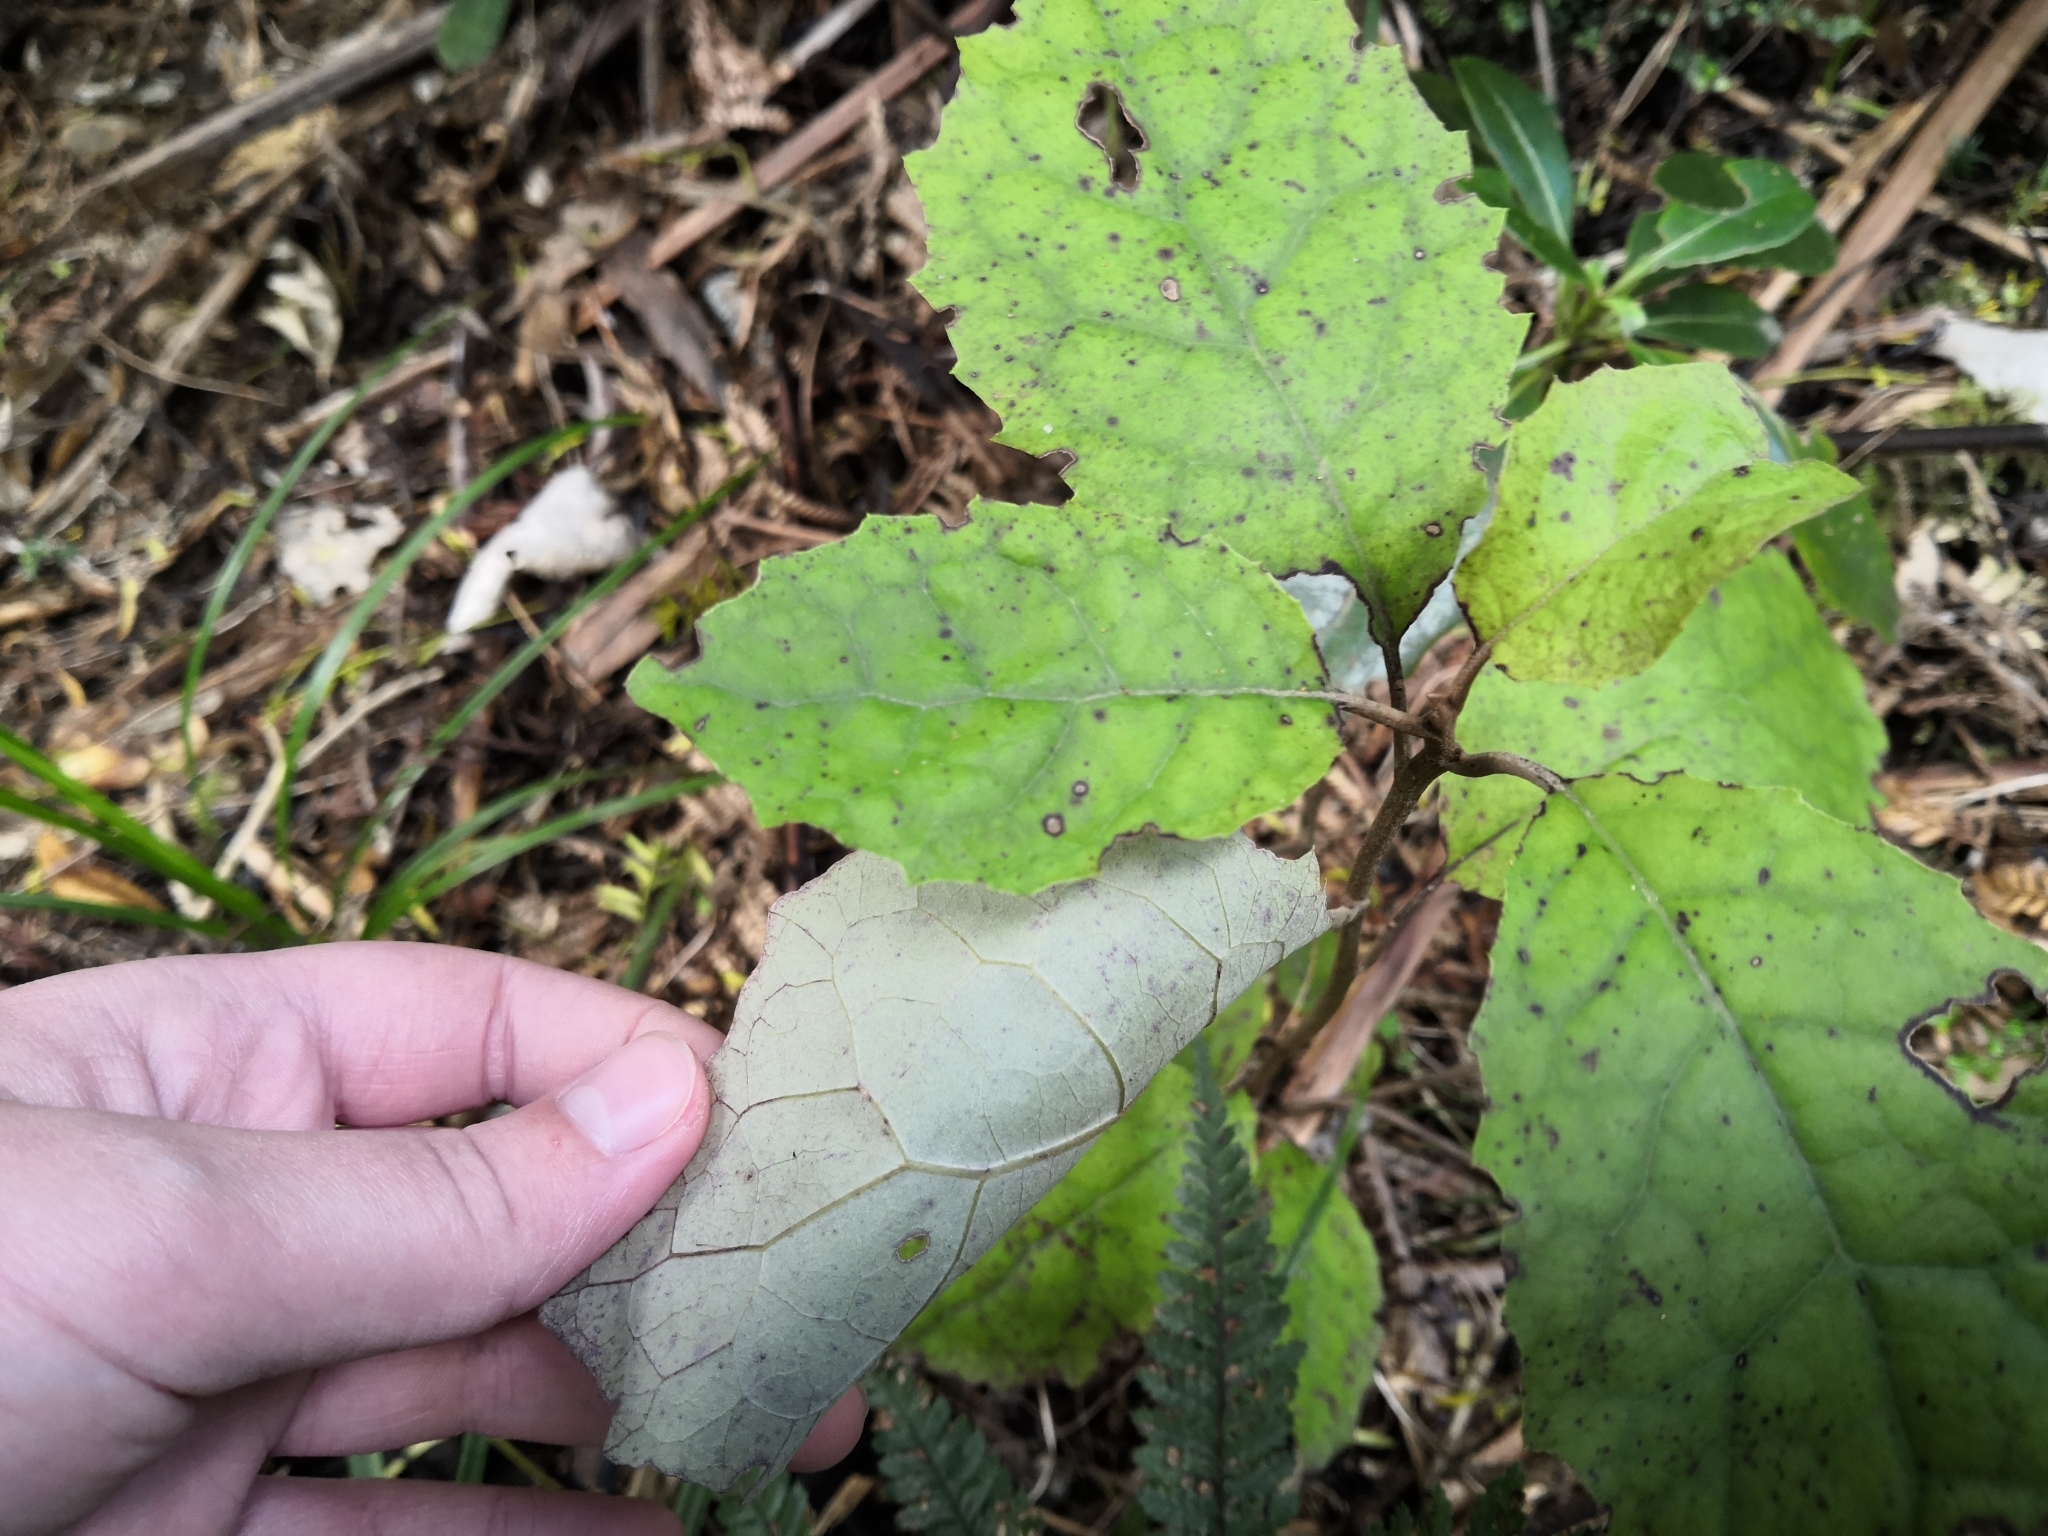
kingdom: Plantae
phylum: Tracheophyta
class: Magnoliopsida
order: Asterales
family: Asteraceae
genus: Brachyglottis
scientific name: Brachyglottis repanda
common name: Hedge ragwort
